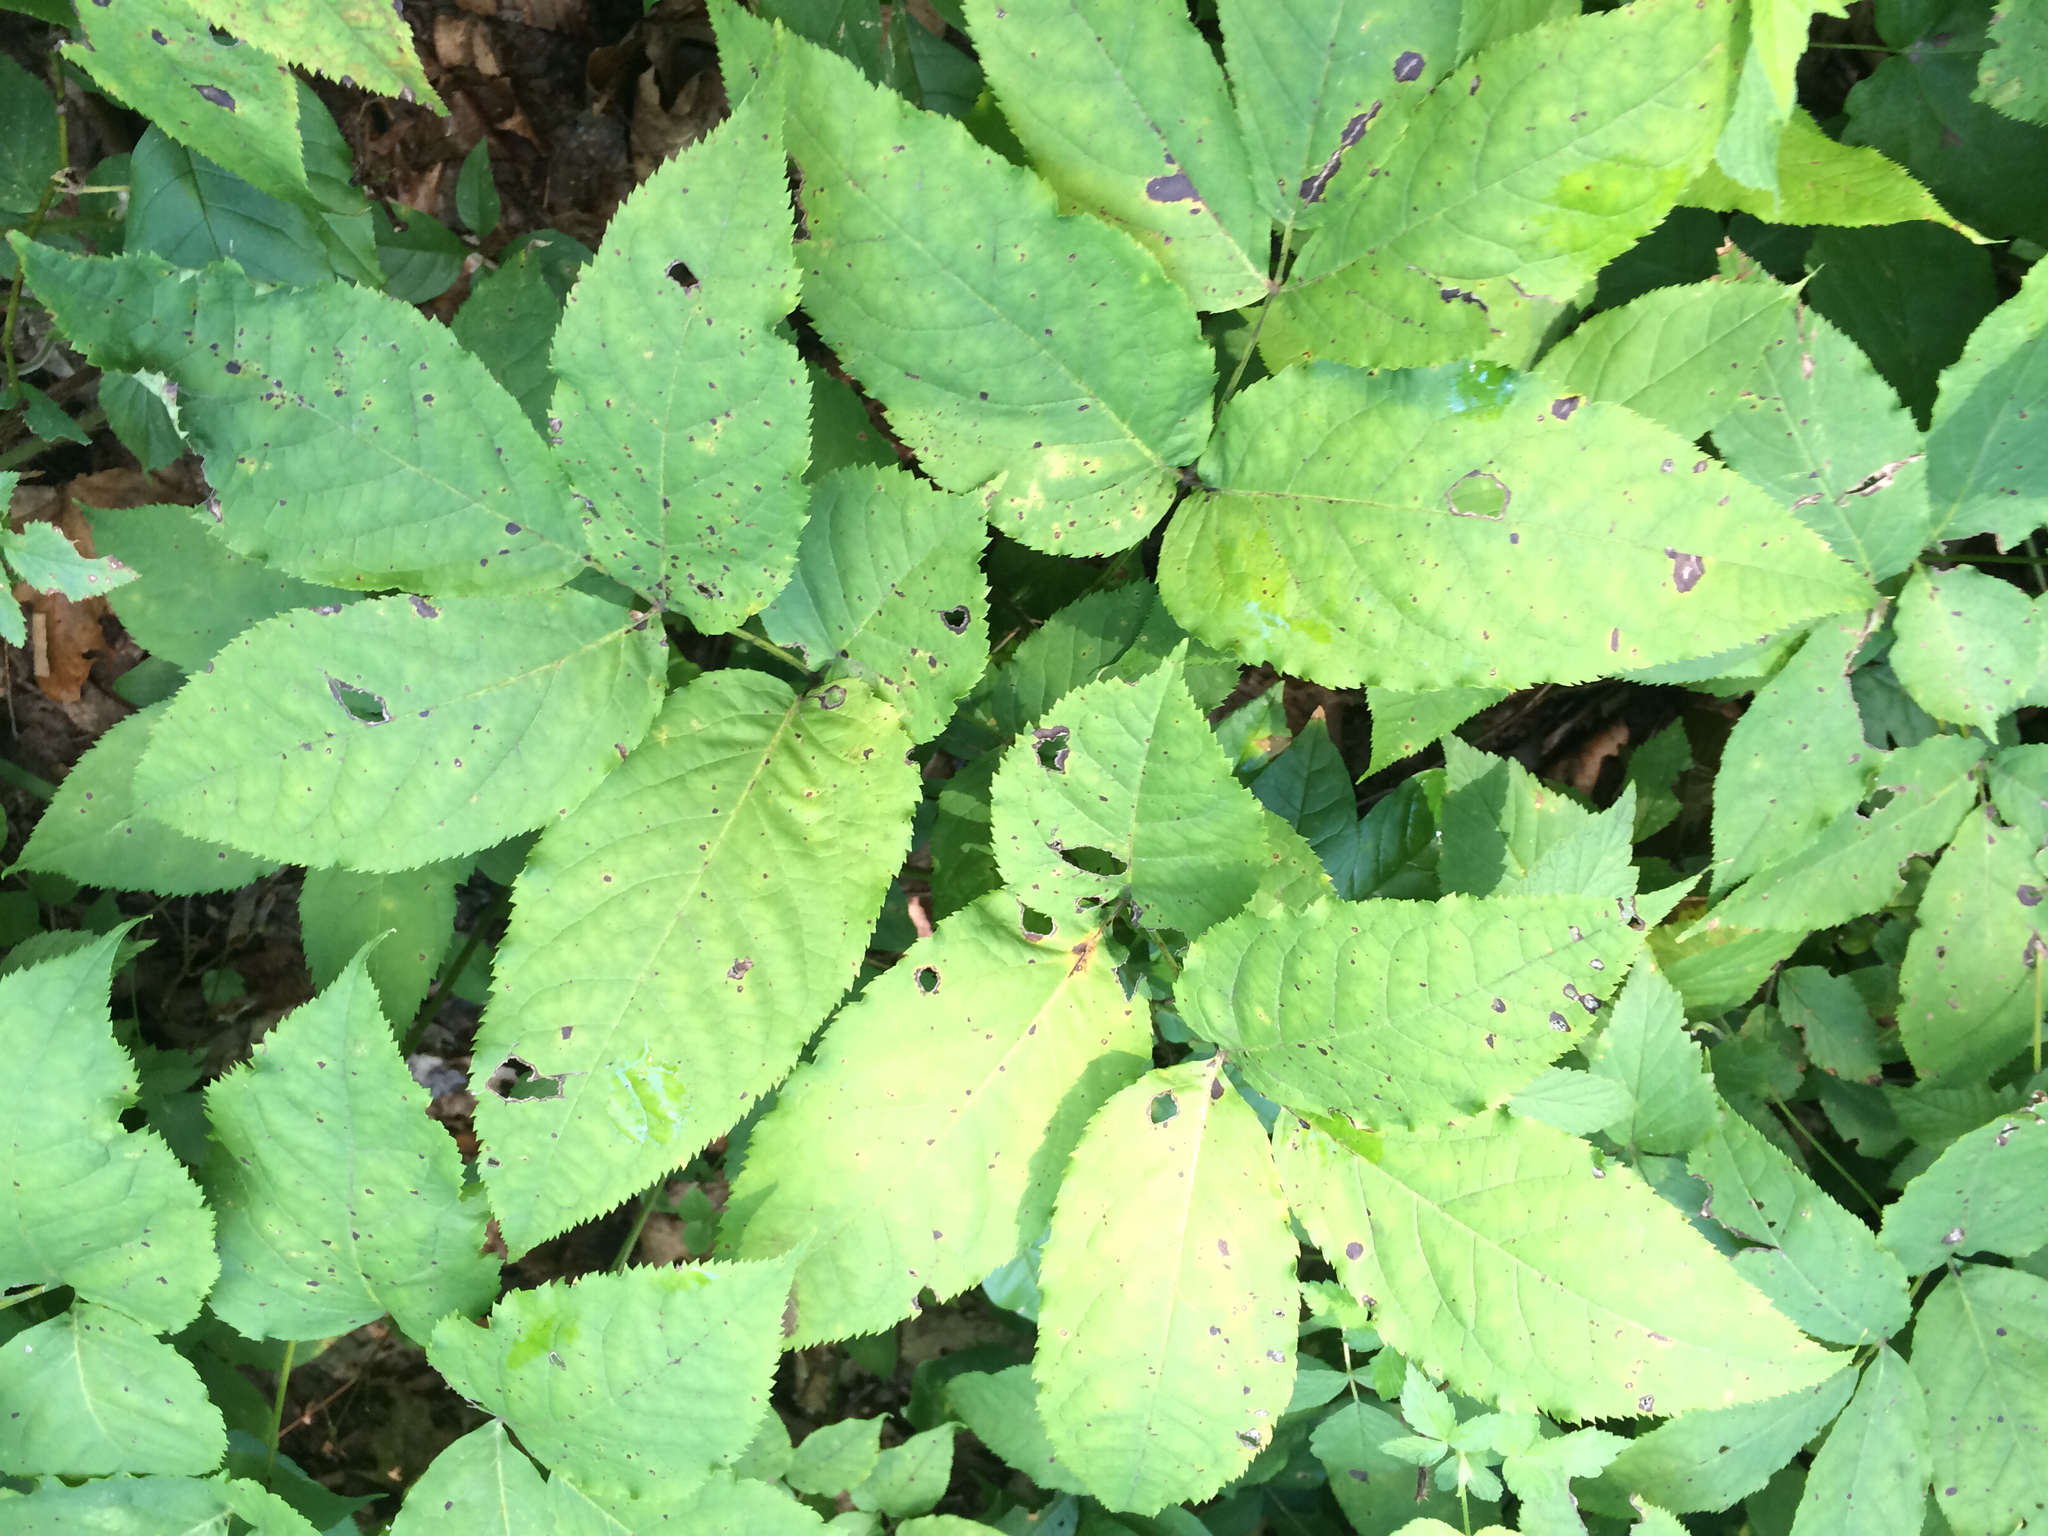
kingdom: Plantae
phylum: Tracheophyta
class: Magnoliopsida
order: Apiales
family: Araliaceae
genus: Aralia
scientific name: Aralia nudicaulis
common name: Wild sarsaparilla
